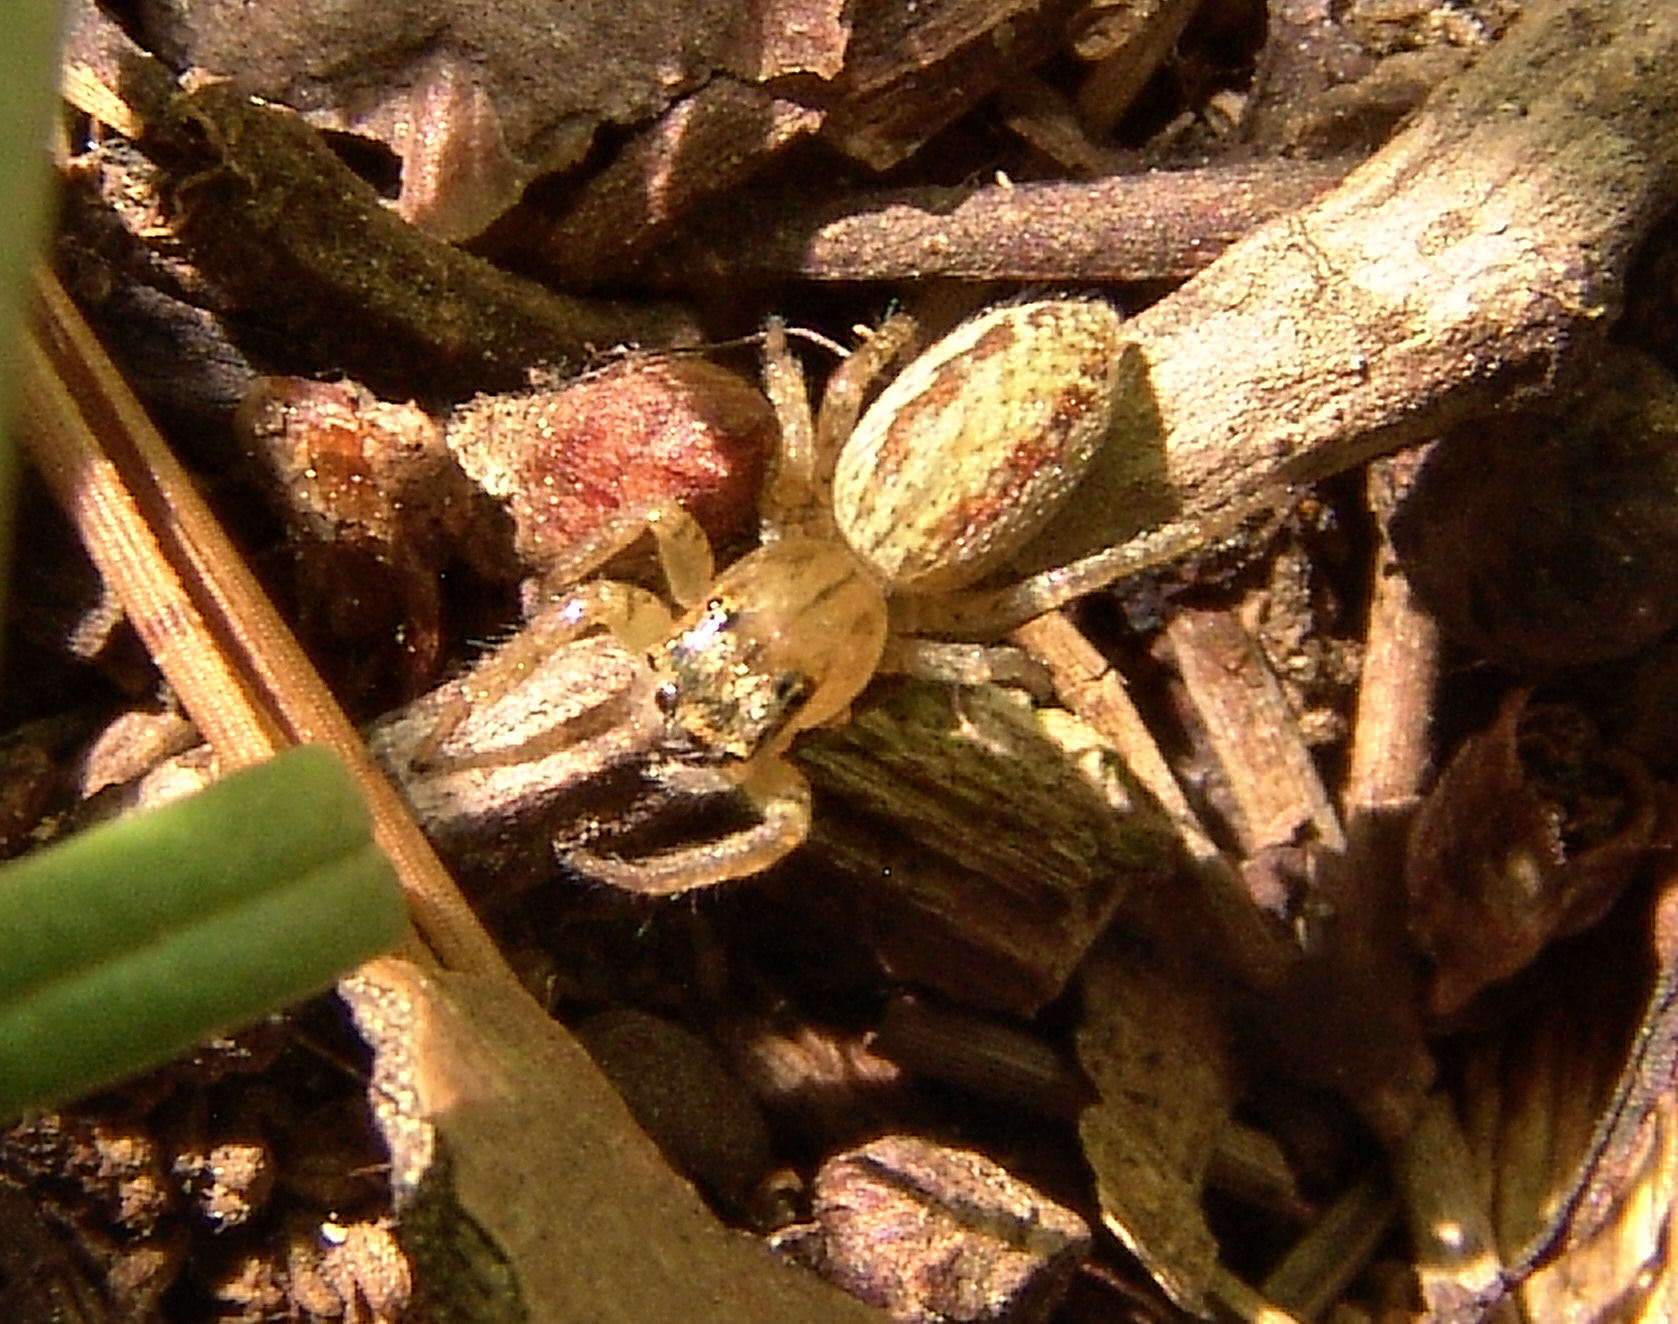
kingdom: Animalia
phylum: Arthropoda
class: Arachnida
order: Araneae
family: Salticidae
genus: Maevia
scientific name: Maevia inclemens
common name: Dimorphic jumper
